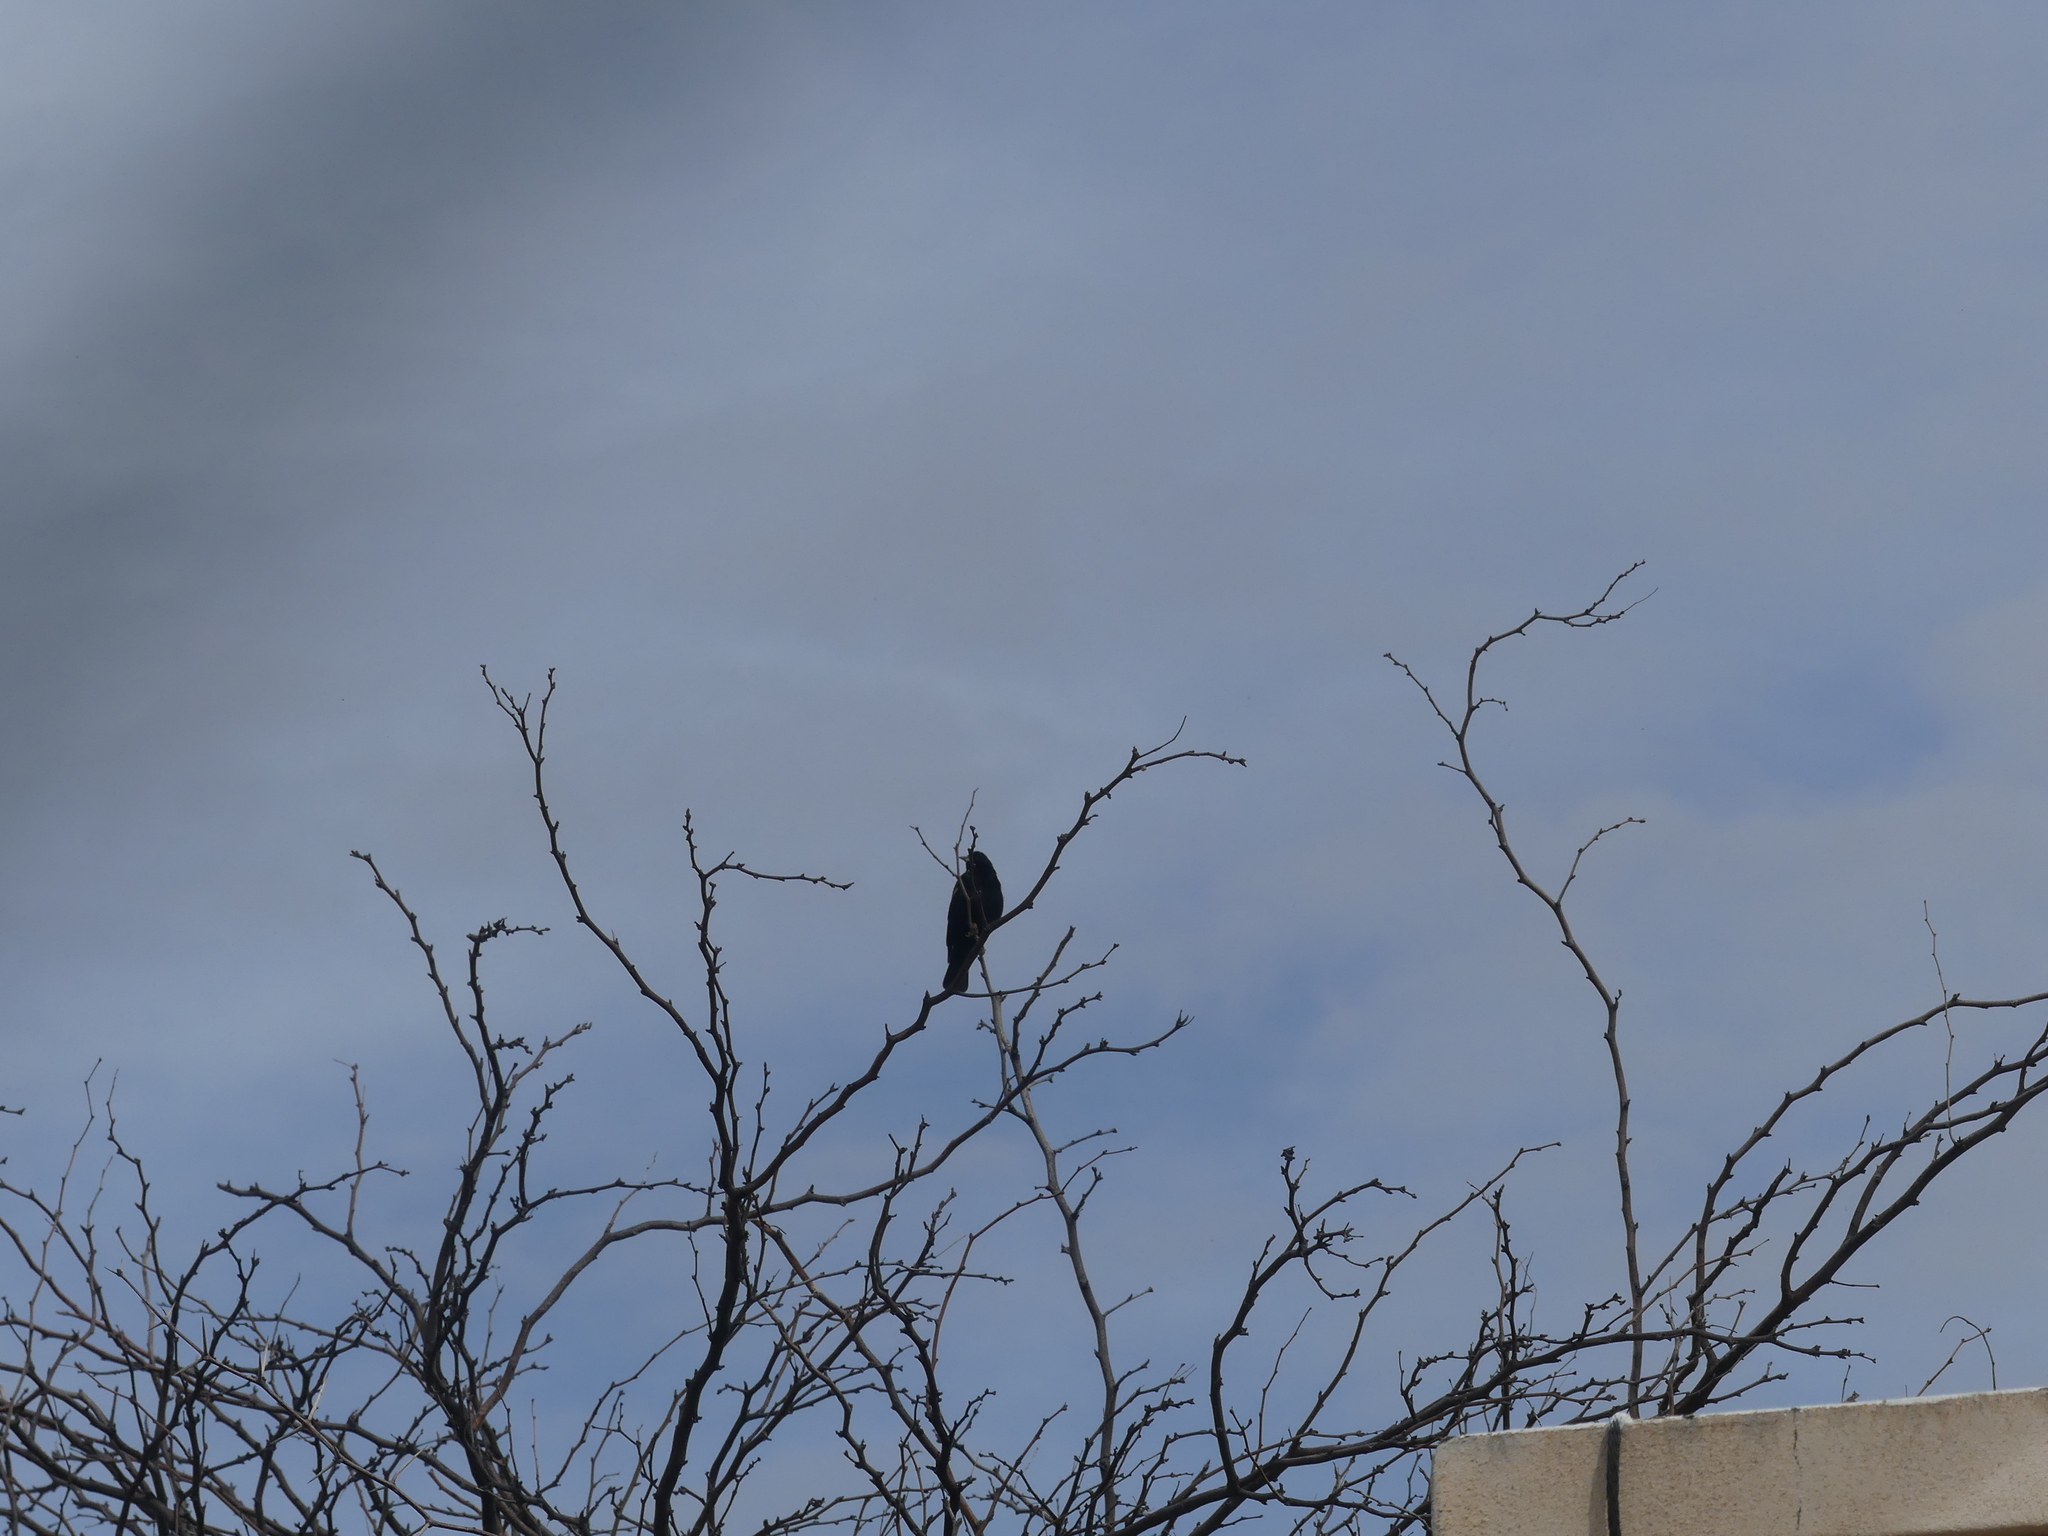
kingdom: Animalia
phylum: Chordata
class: Aves
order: Passeriformes
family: Icteridae
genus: Agelaius
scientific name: Agelaius phoeniceus
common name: Red-winged blackbird
